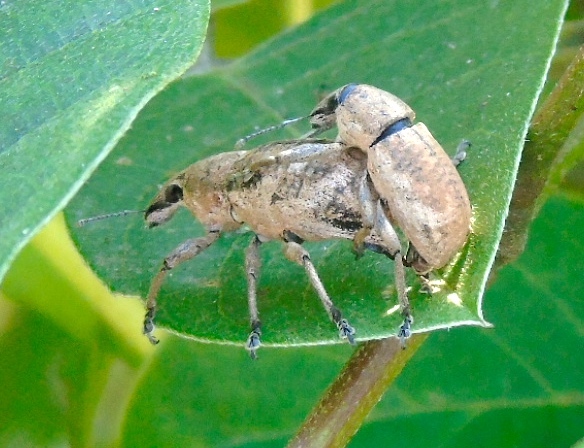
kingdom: Animalia
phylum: Arthropoda
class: Insecta
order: Coleoptera
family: Curculionidae
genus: Epicaerus
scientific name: Epicaerus
